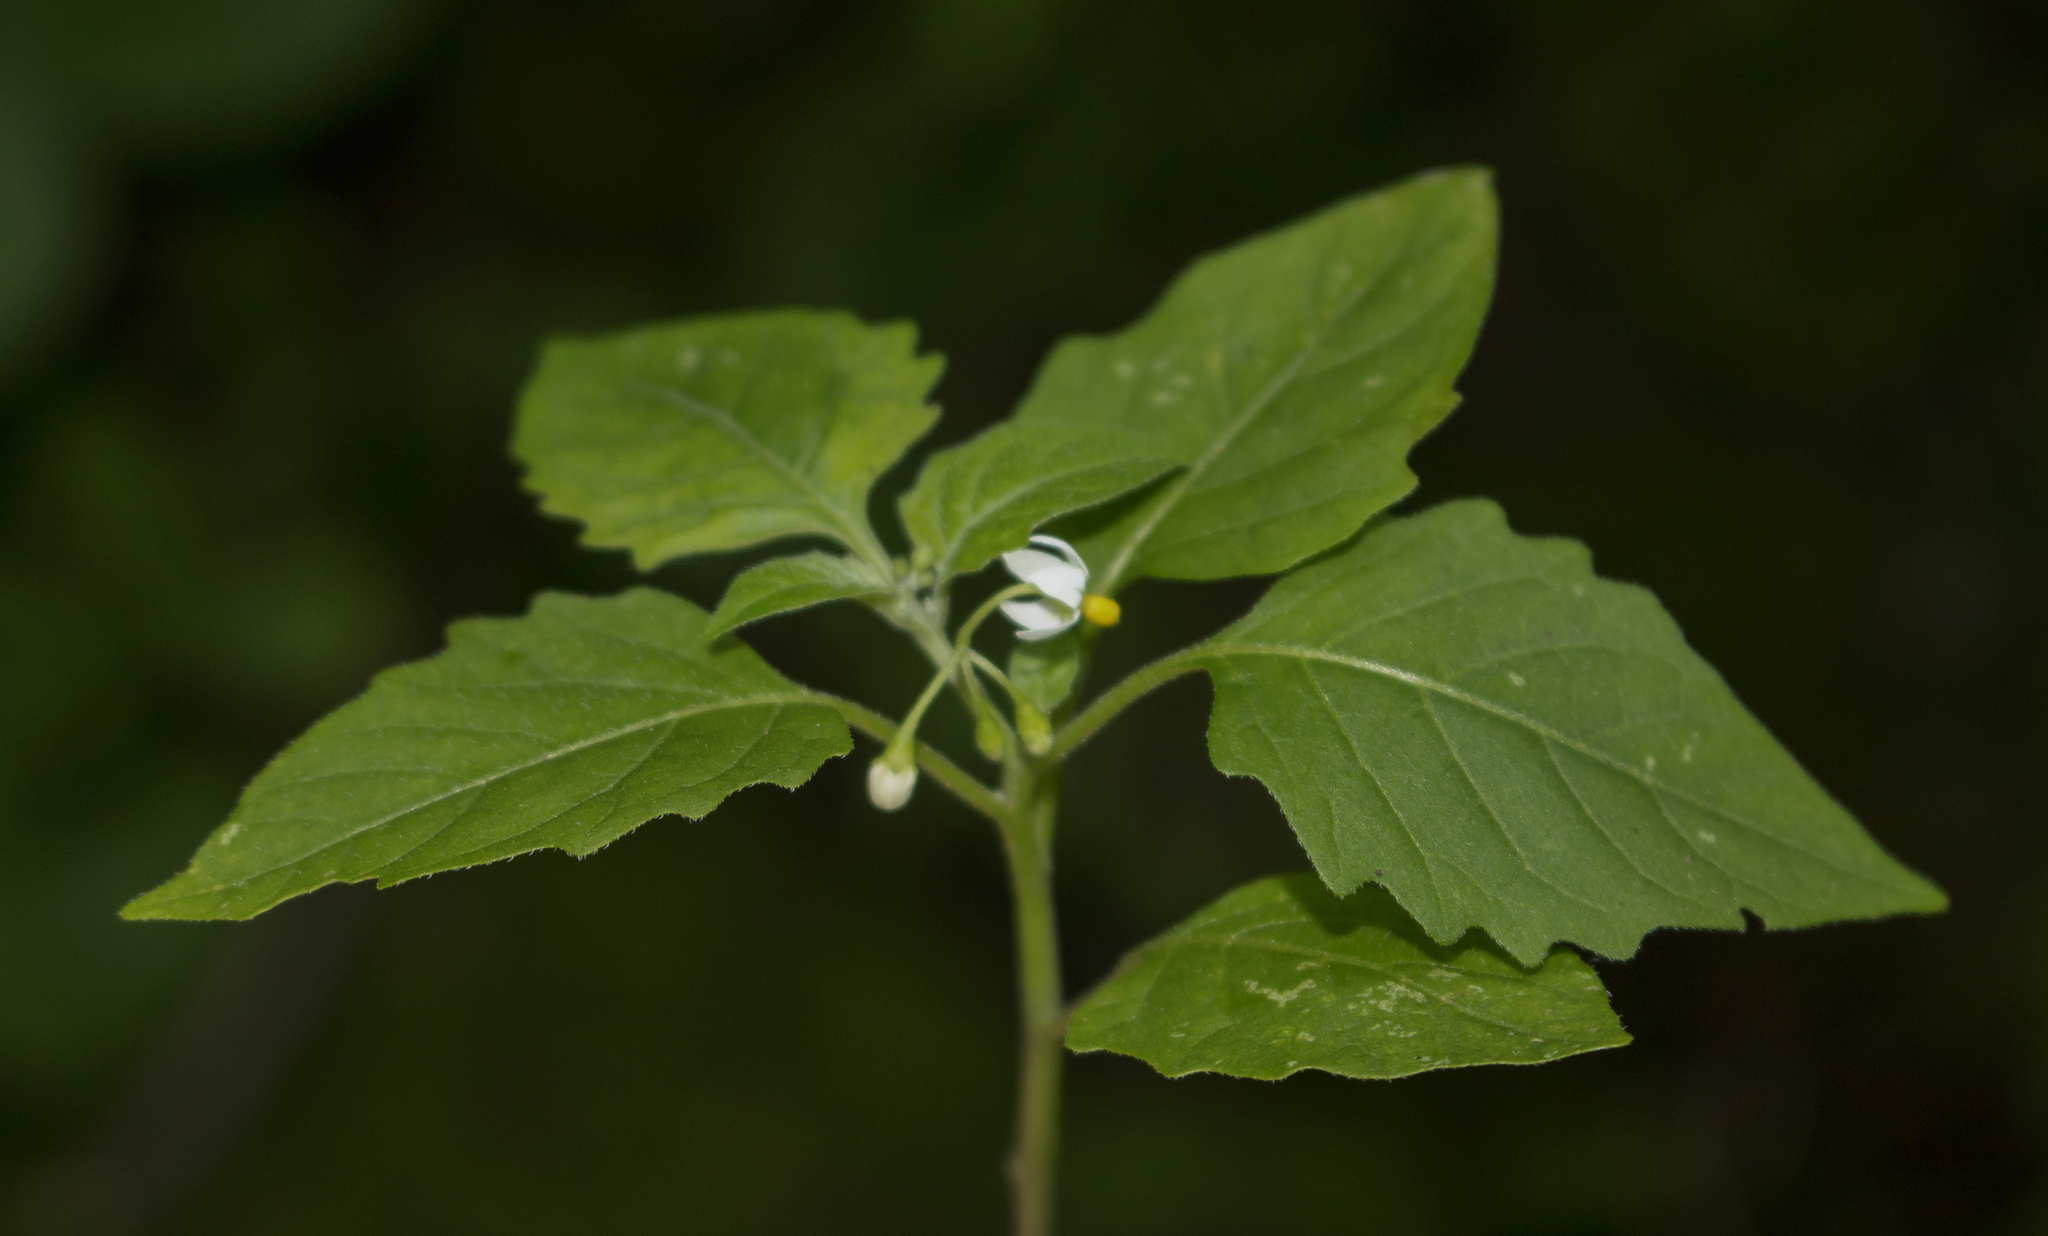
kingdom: Plantae
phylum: Tracheophyta
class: Magnoliopsida
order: Solanales
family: Solanaceae
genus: Solanum
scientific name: Solanum emulans
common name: Eastern black nightshade
